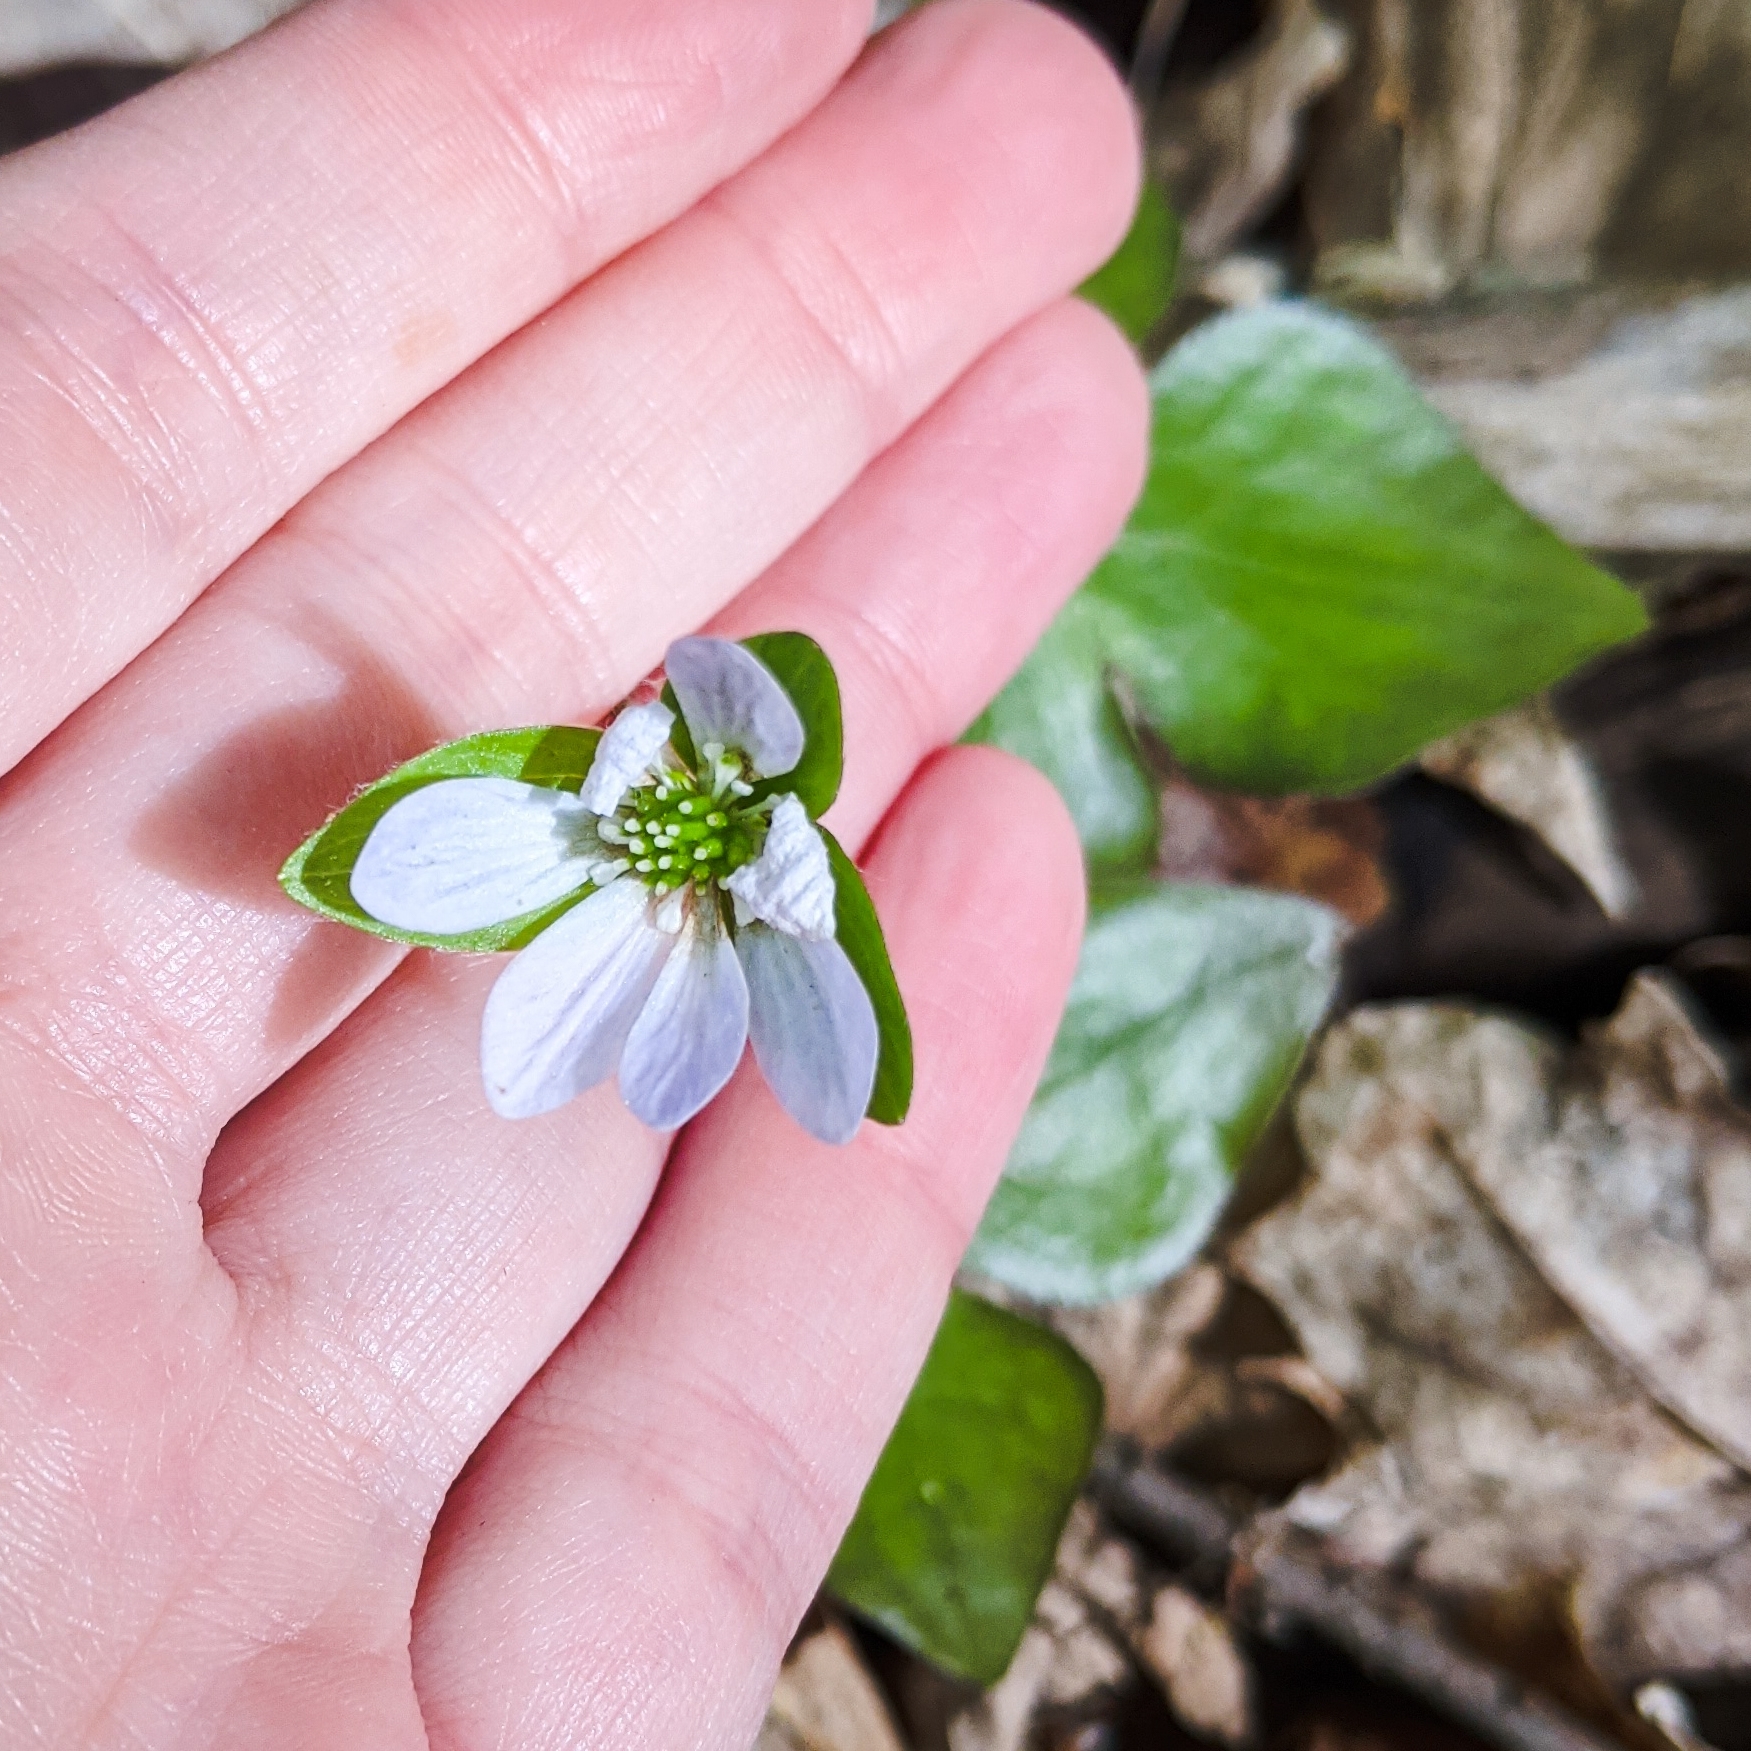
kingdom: Plantae
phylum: Tracheophyta
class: Magnoliopsida
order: Ranunculales
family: Ranunculaceae
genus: Hepatica
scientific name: Hepatica acutiloba
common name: Sharp-lobed hepatica
